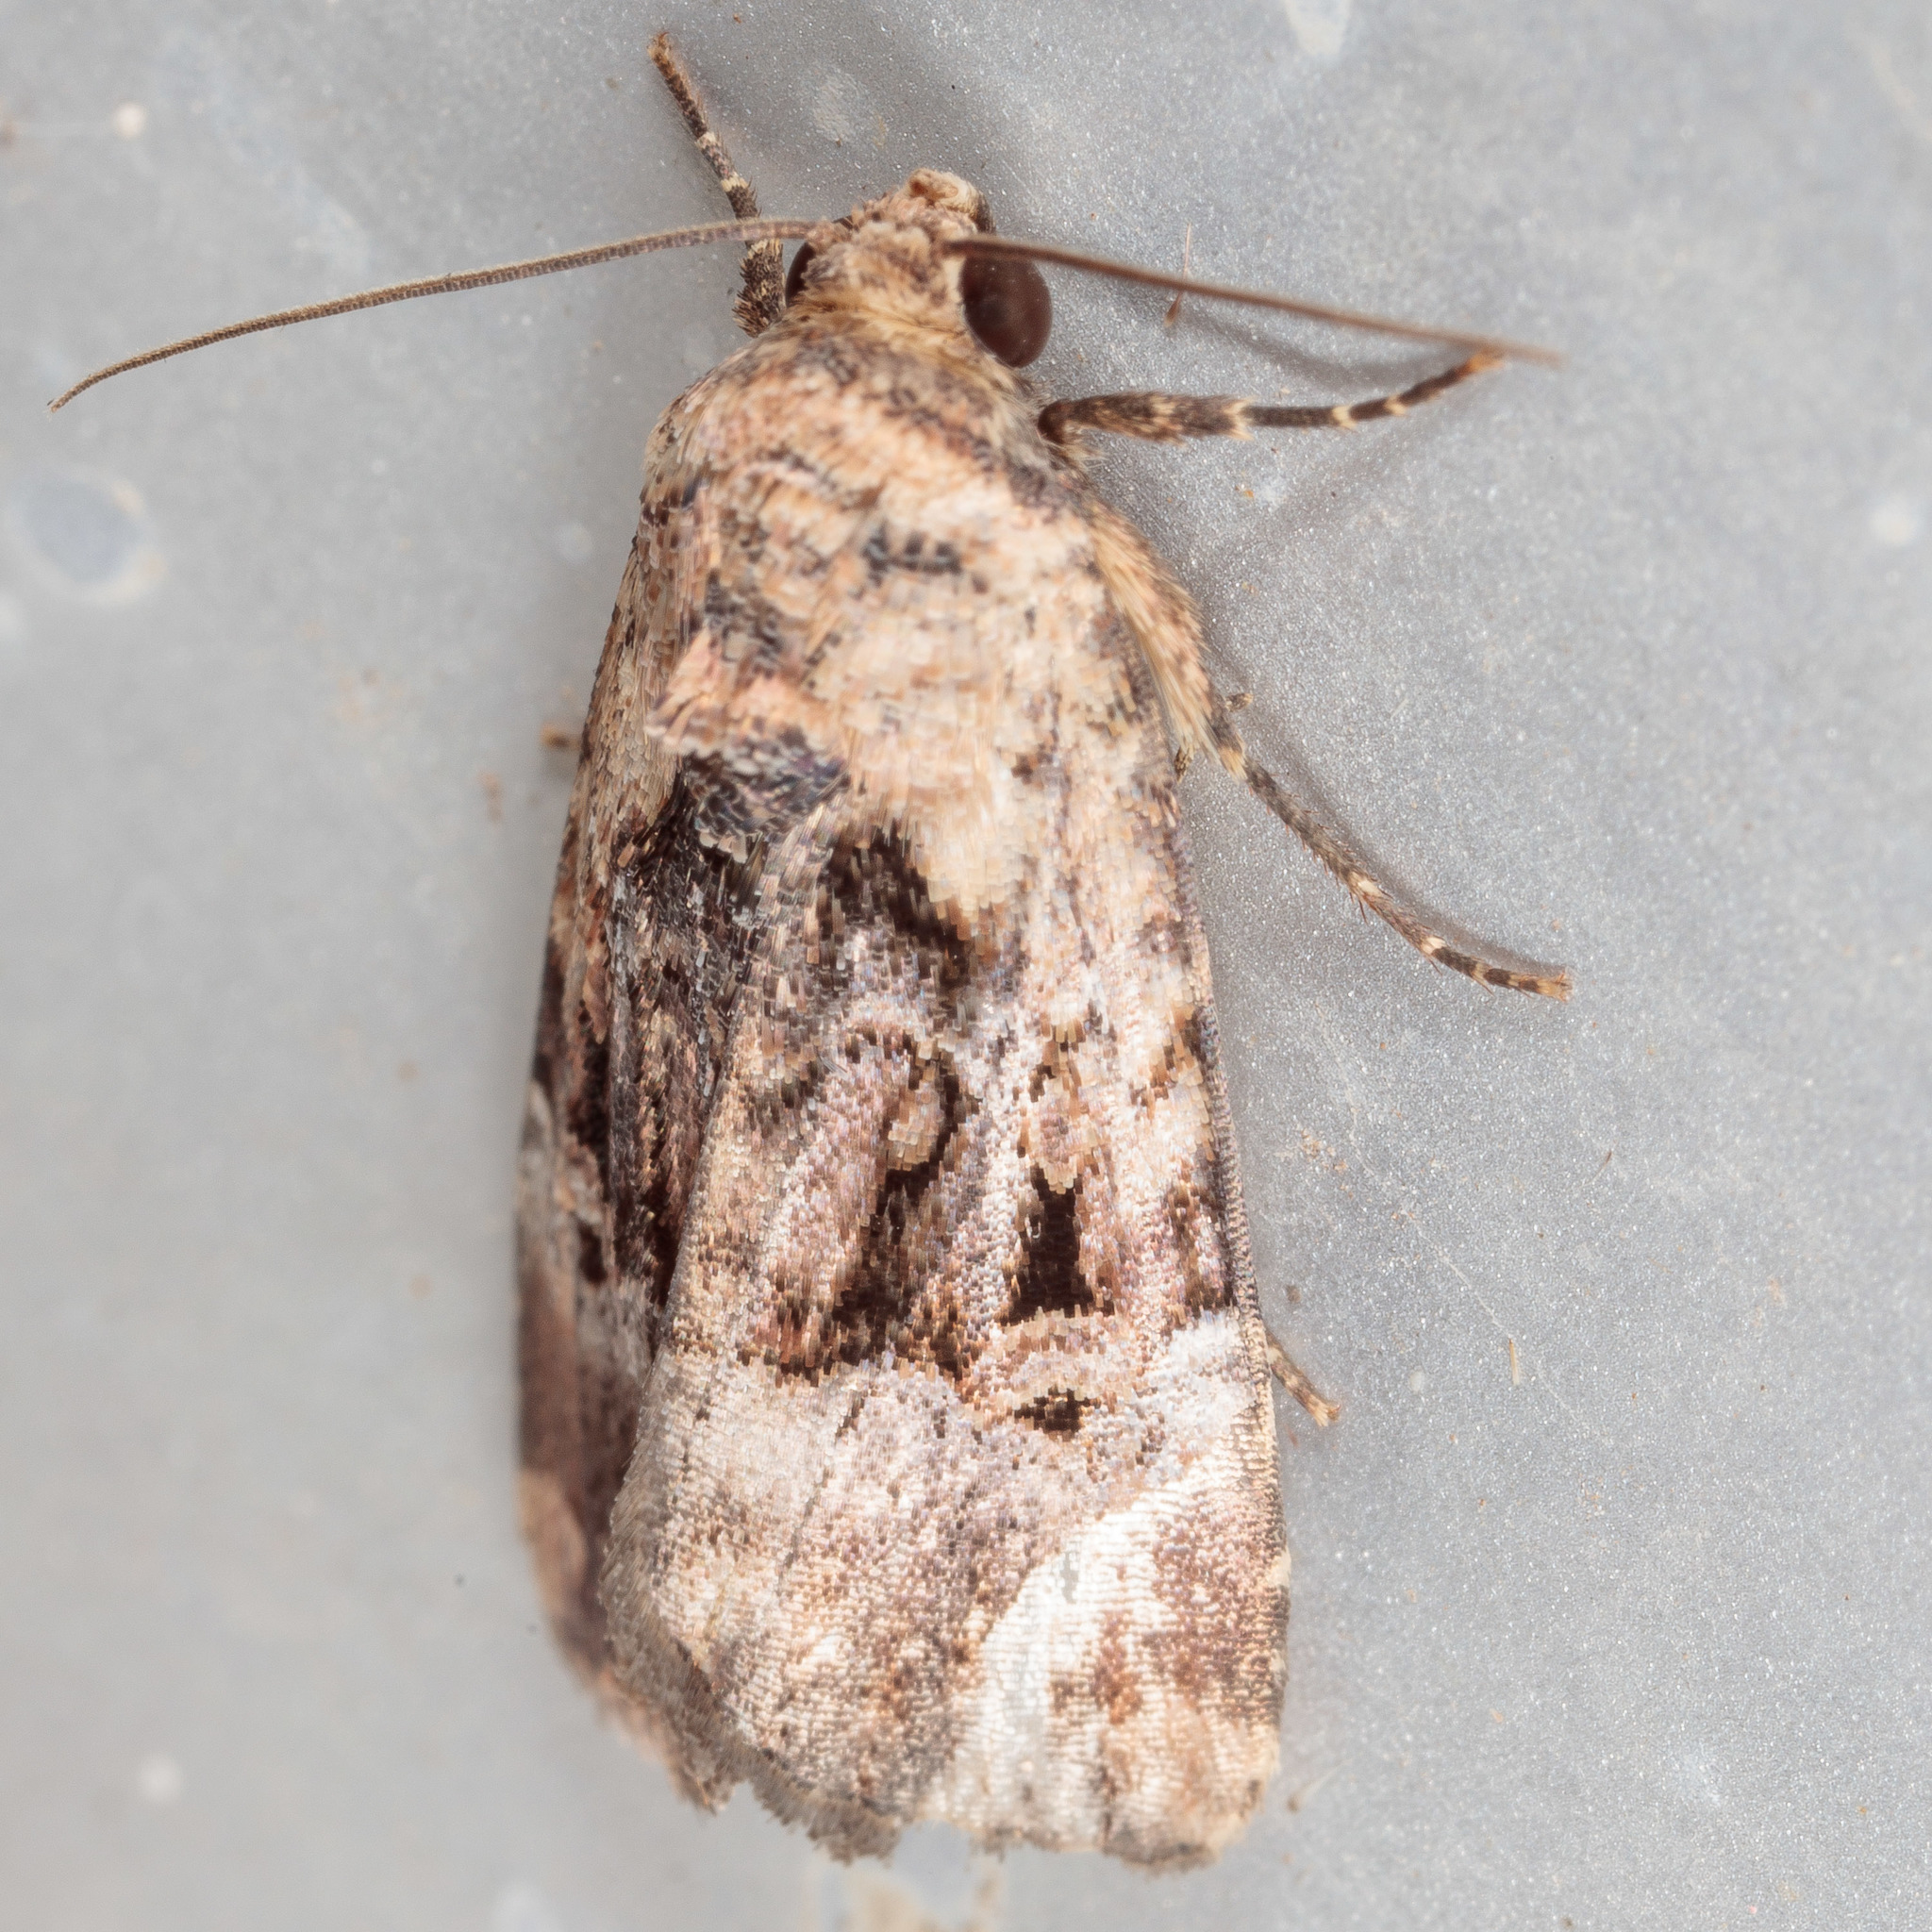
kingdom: Animalia
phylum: Arthropoda
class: Insecta
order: Lepidoptera
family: Noctuidae
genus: Elaphria
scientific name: Elaphria chalcedonia
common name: Chalcedony midget
